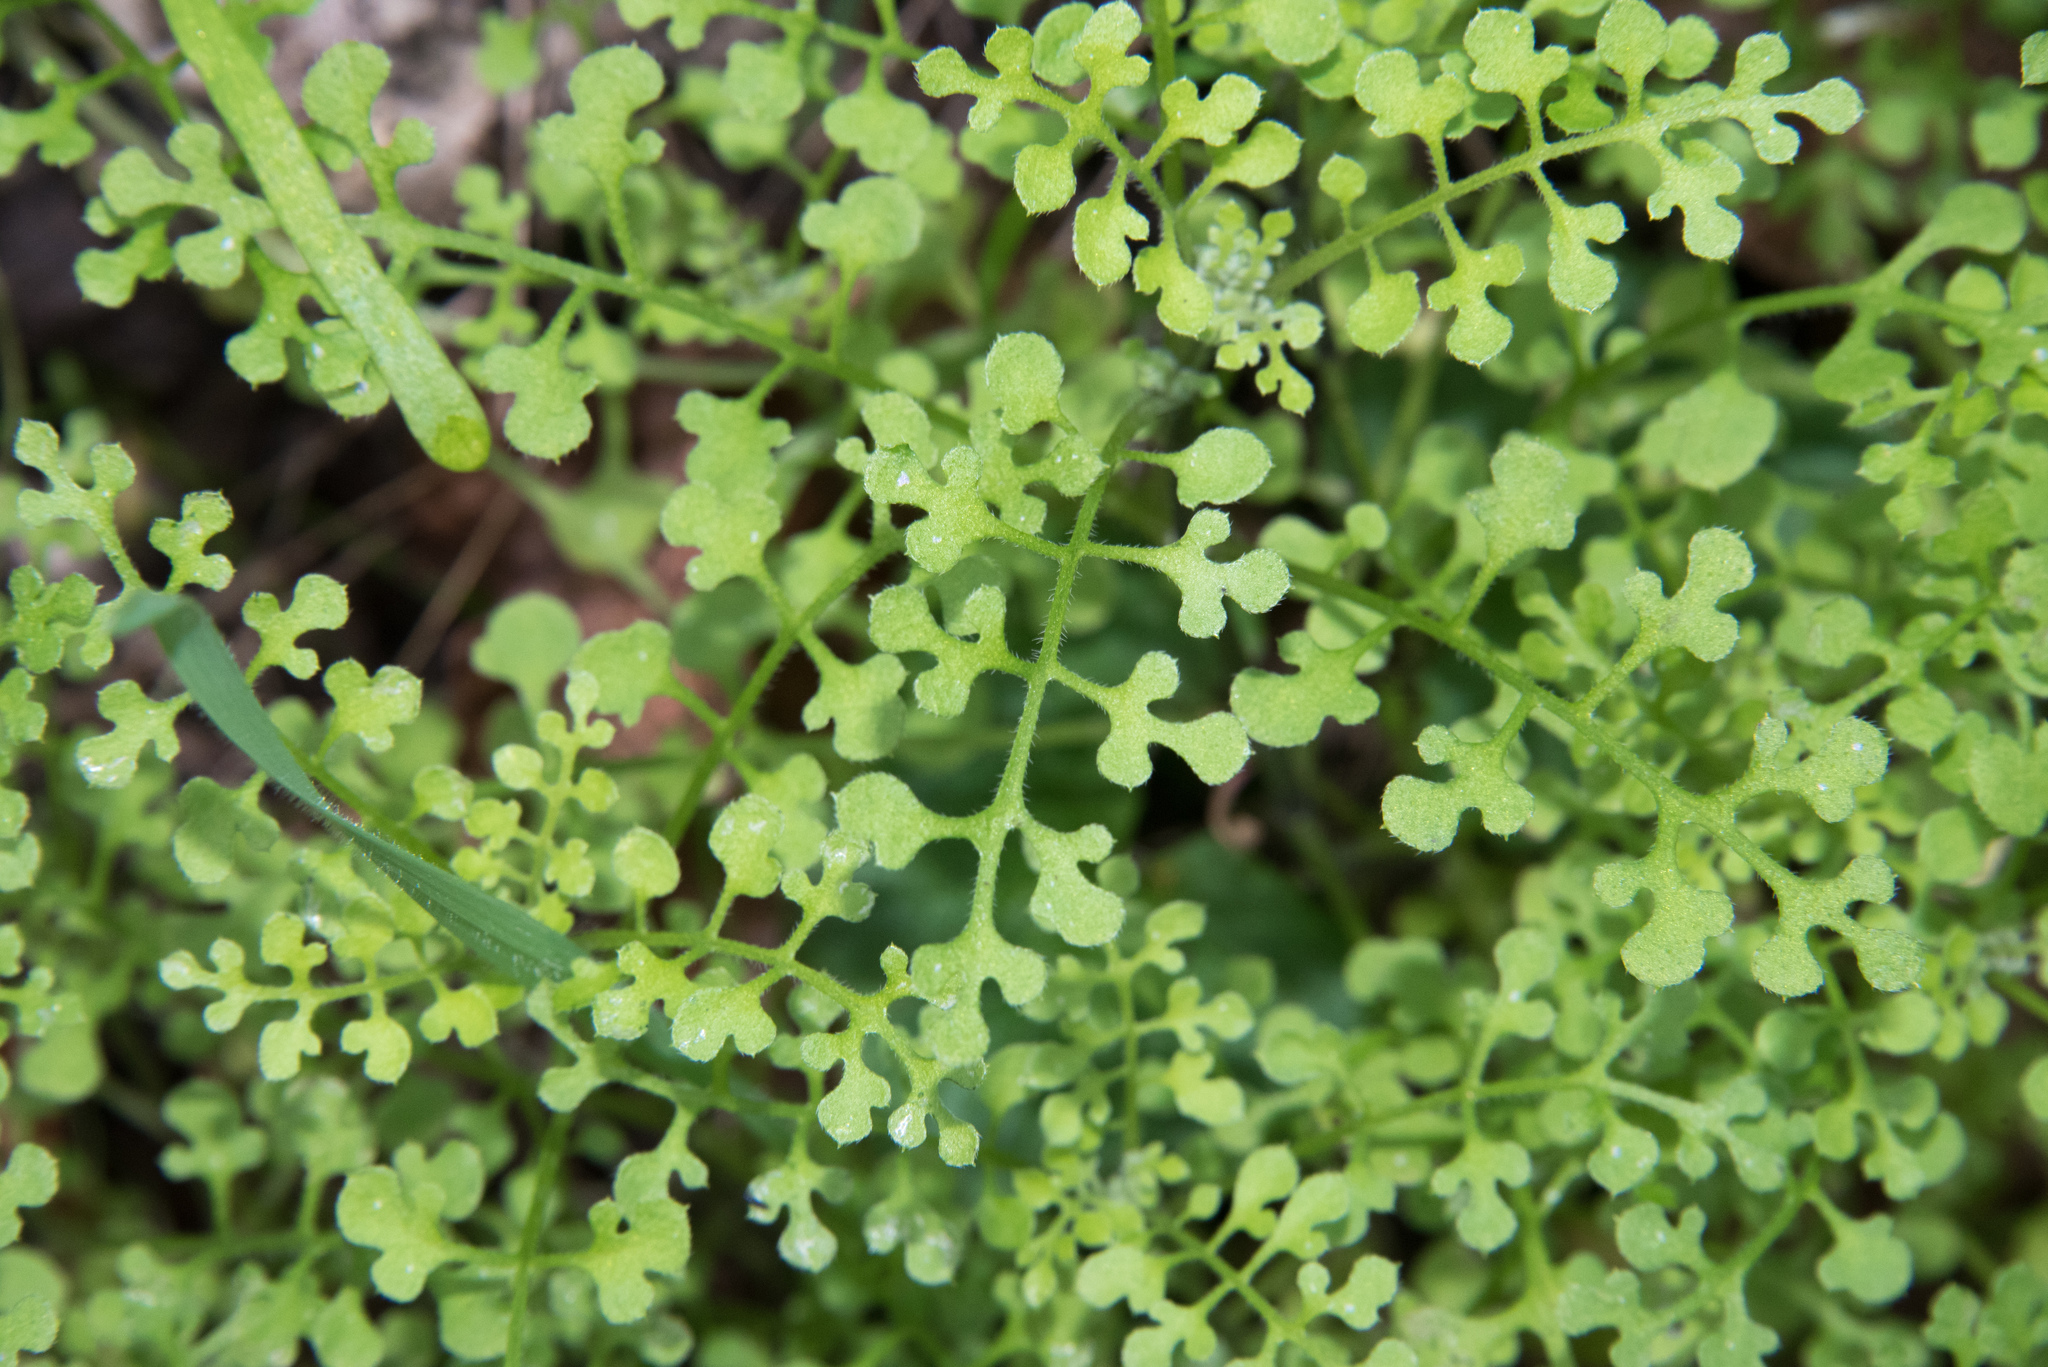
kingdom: Plantae
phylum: Tracheophyta
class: Magnoliopsida
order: Boraginales
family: Hydrophyllaceae
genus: Nemophila
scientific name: Nemophila heterophylla
